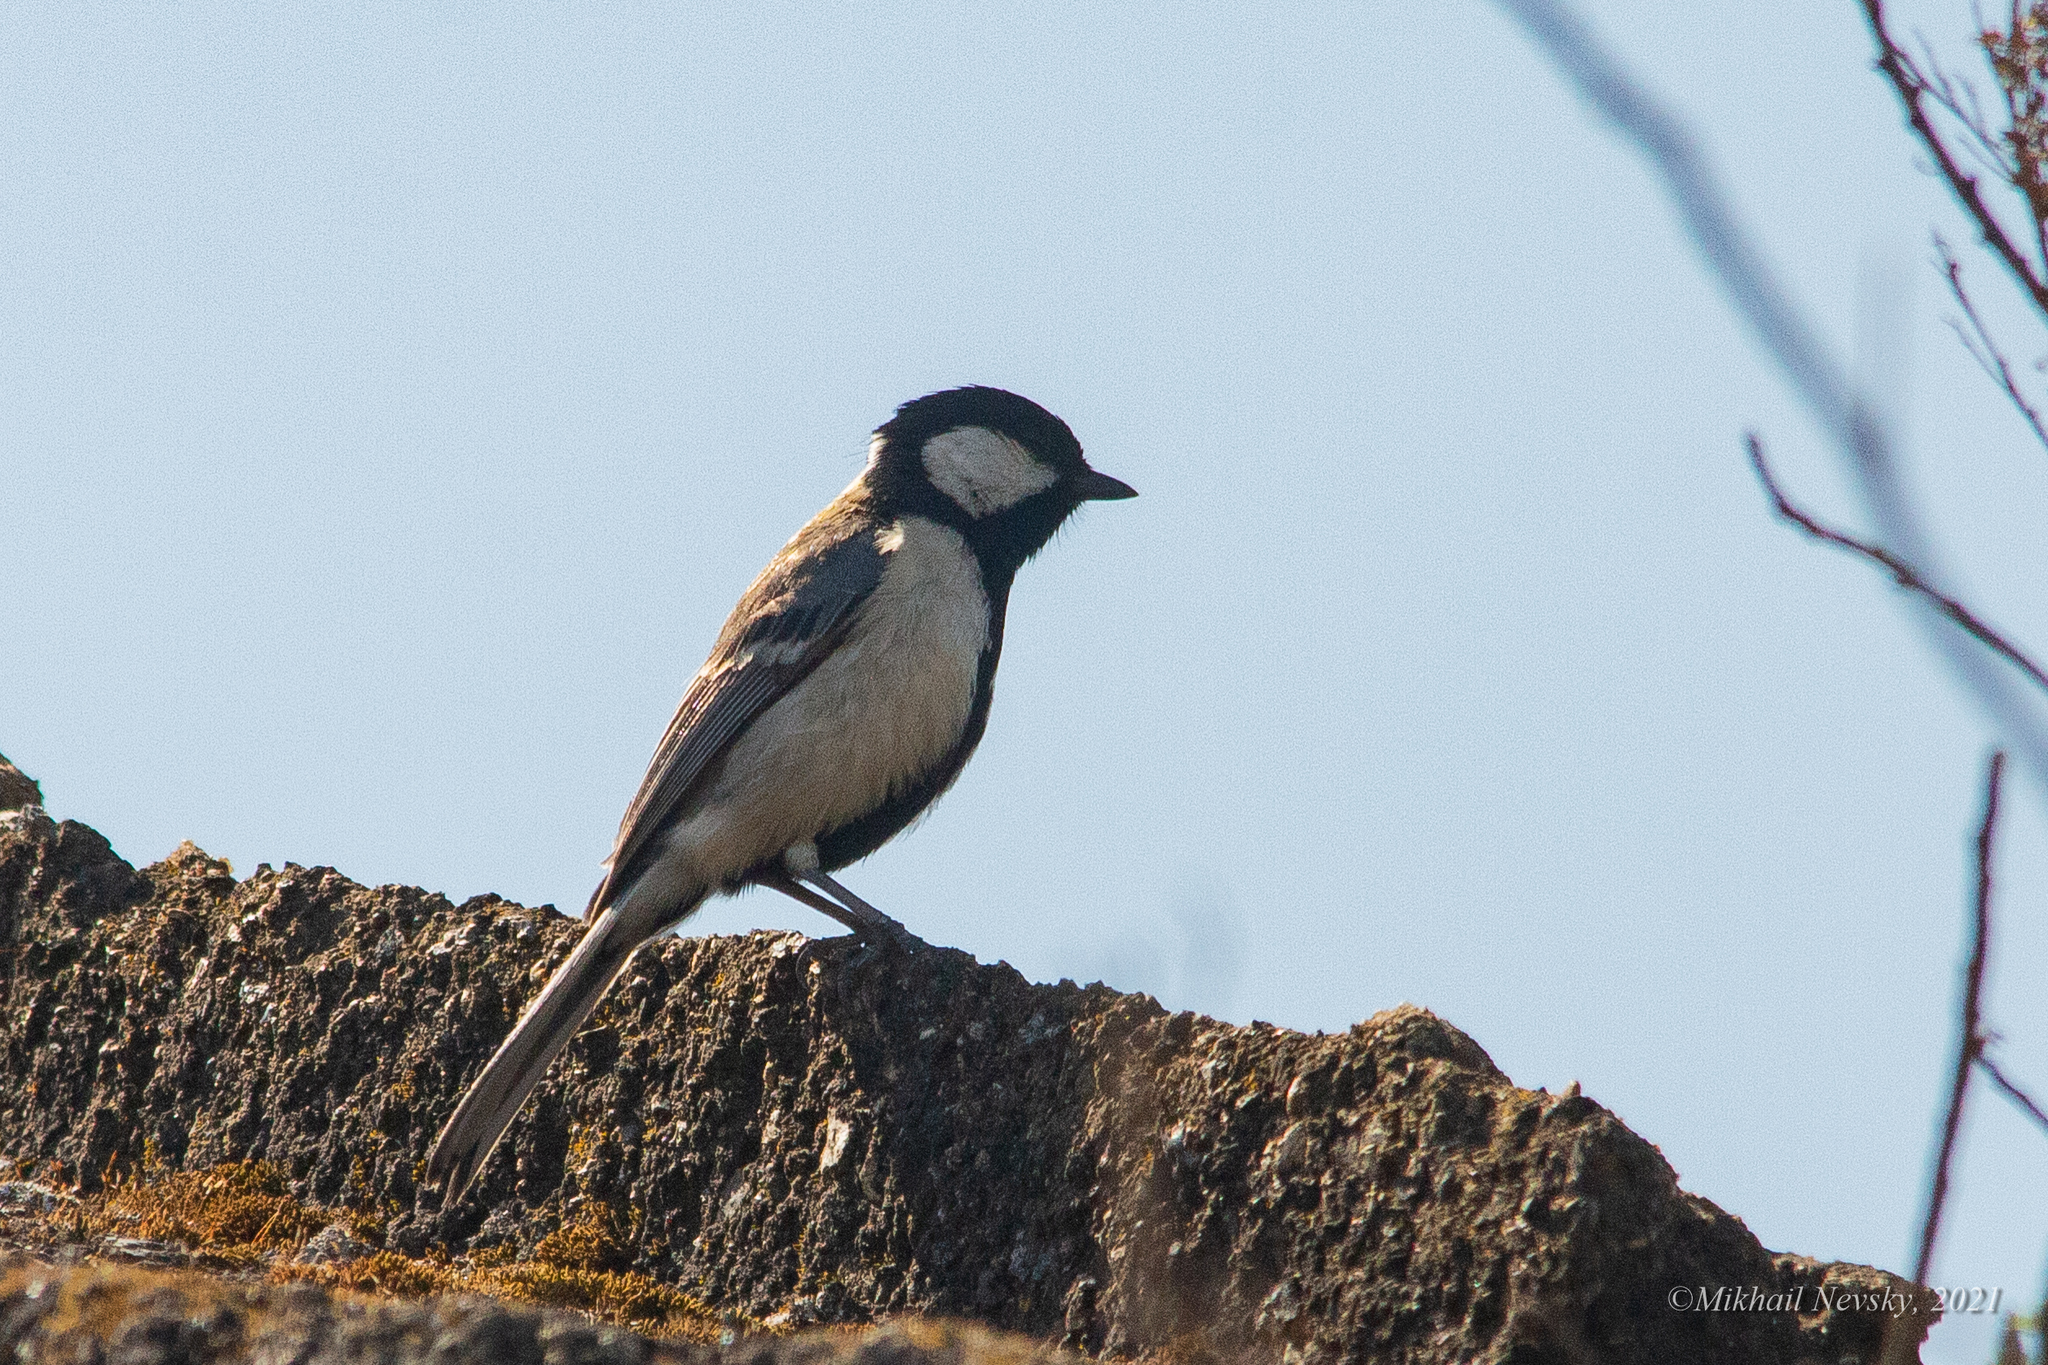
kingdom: Animalia
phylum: Chordata
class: Aves
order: Passeriformes
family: Paridae
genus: Parus
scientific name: Parus minor
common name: Japanese tit
